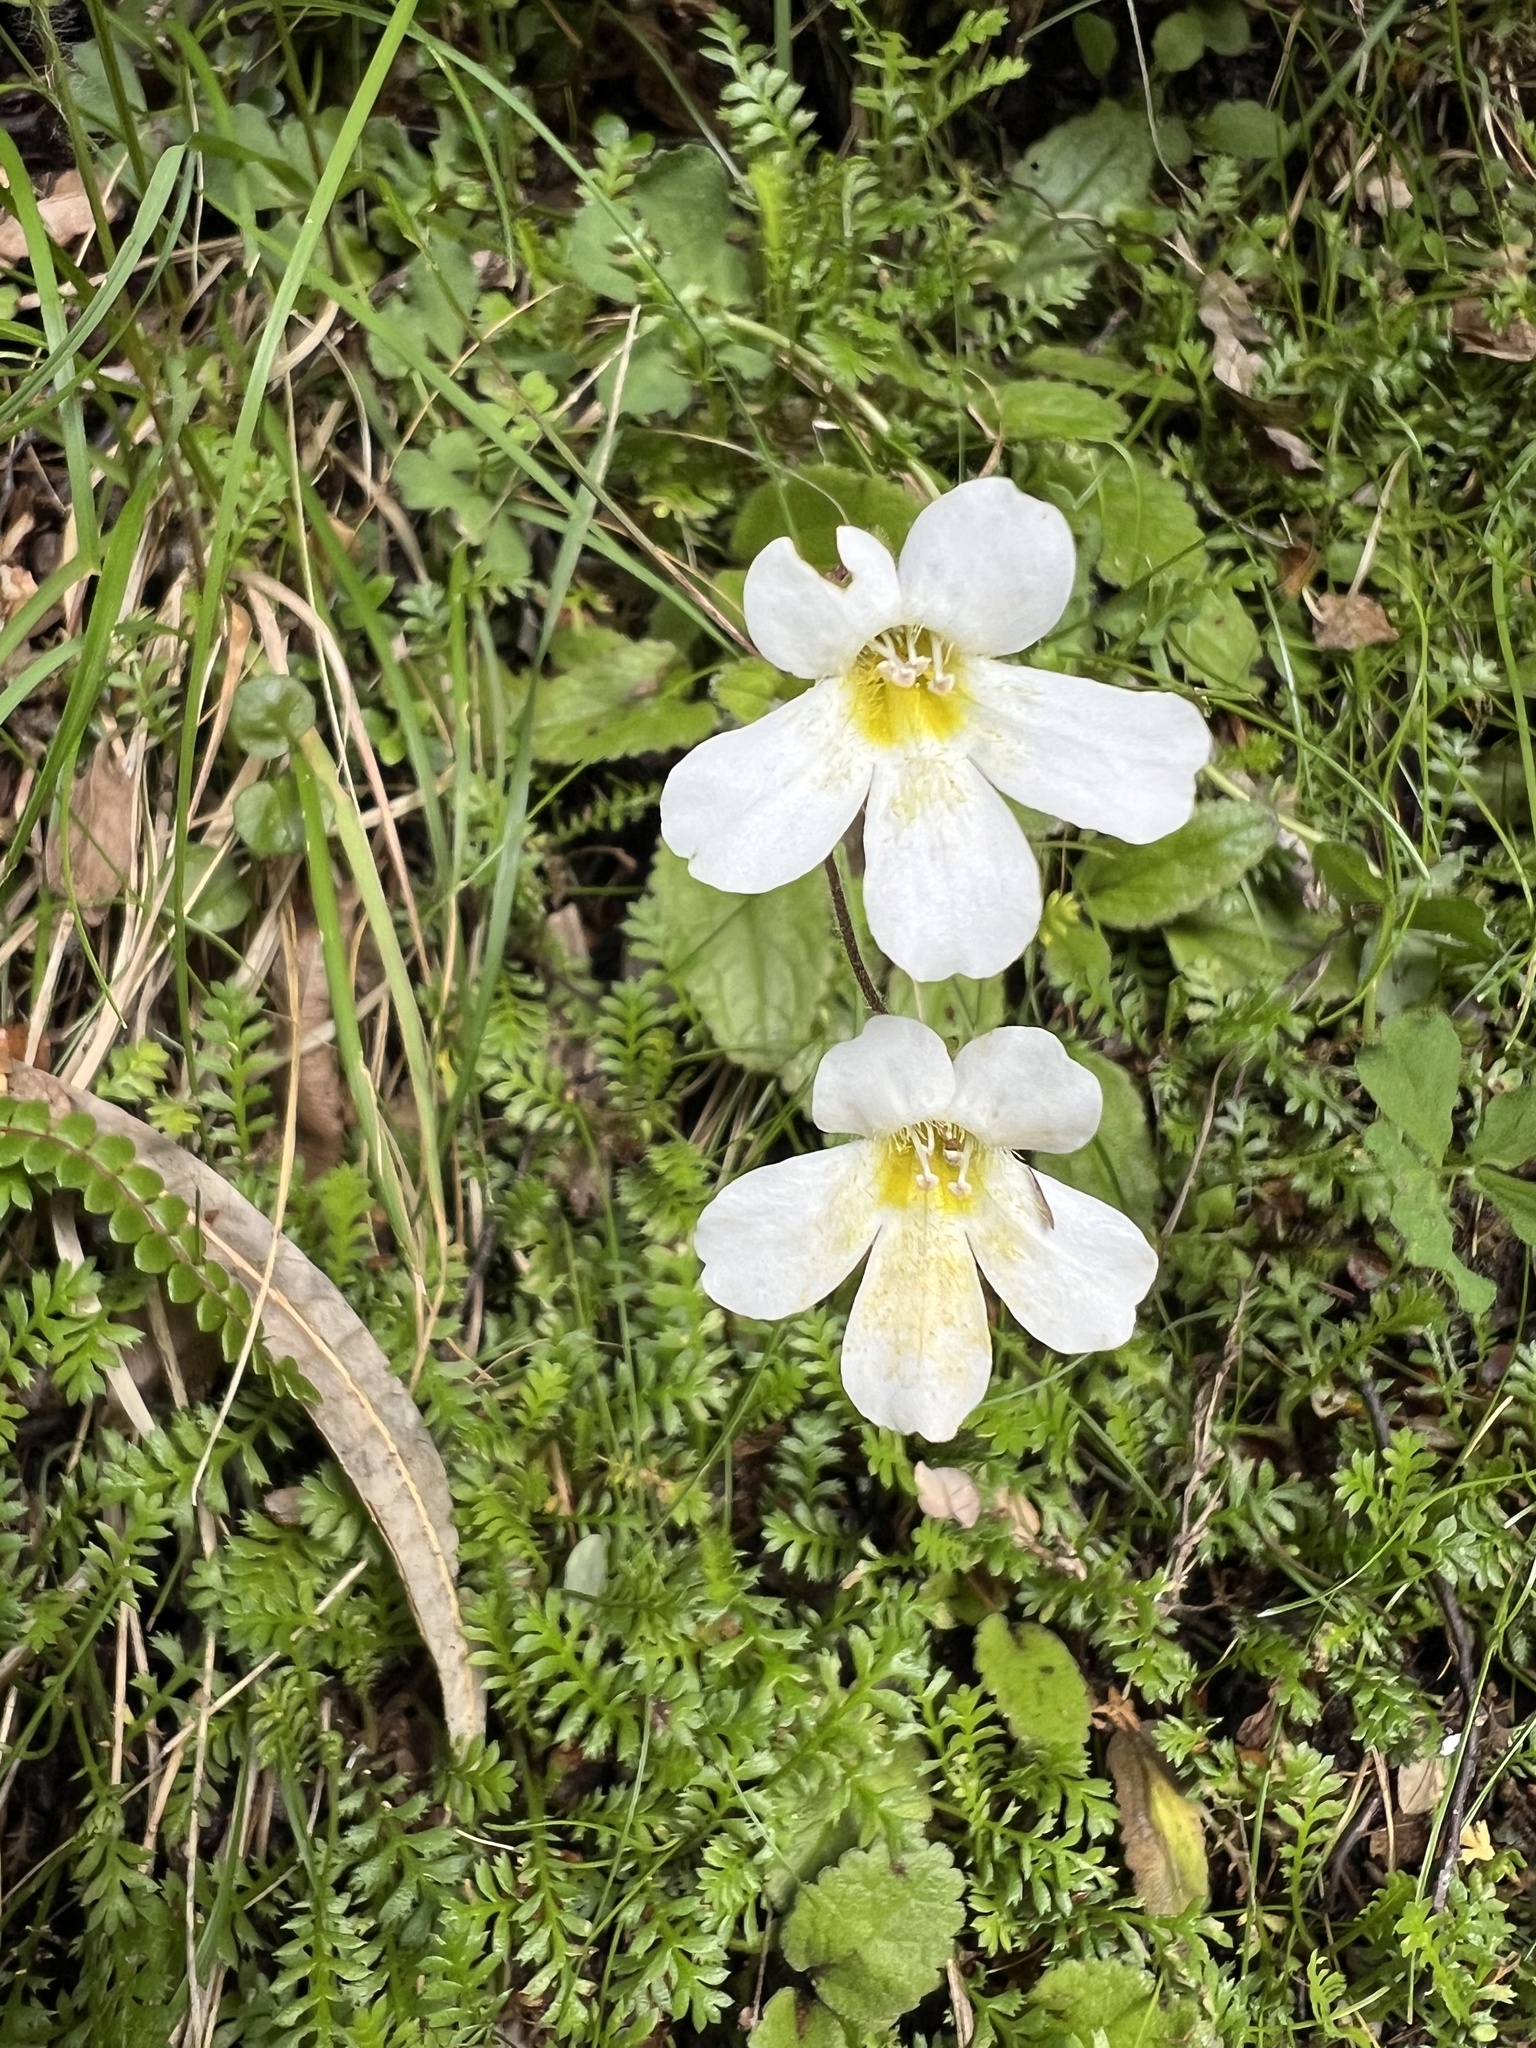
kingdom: Plantae
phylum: Tracheophyta
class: Magnoliopsida
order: Lamiales
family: Plantaginaceae
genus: Ourisia
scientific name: Ourisia macrophylla
